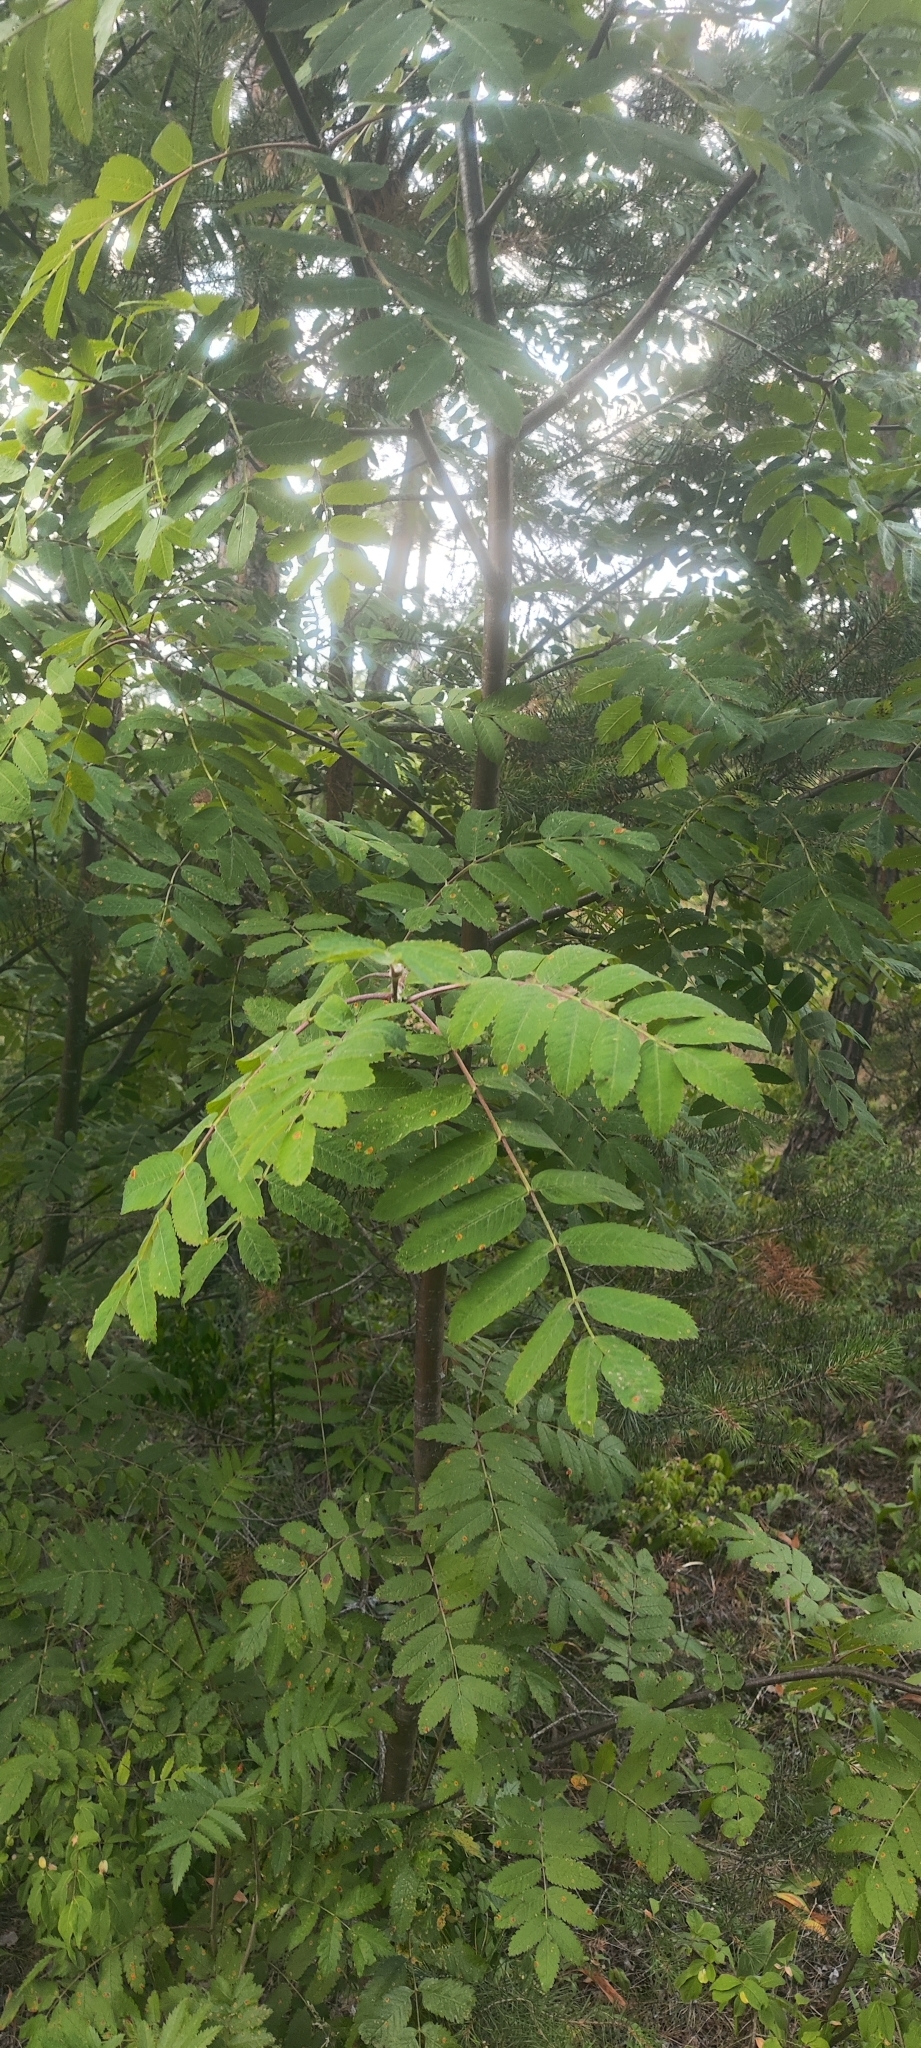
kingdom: Plantae
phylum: Tracheophyta
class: Magnoliopsida
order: Rosales
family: Rosaceae
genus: Sorbus
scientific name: Sorbus aucuparia
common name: Rowan
